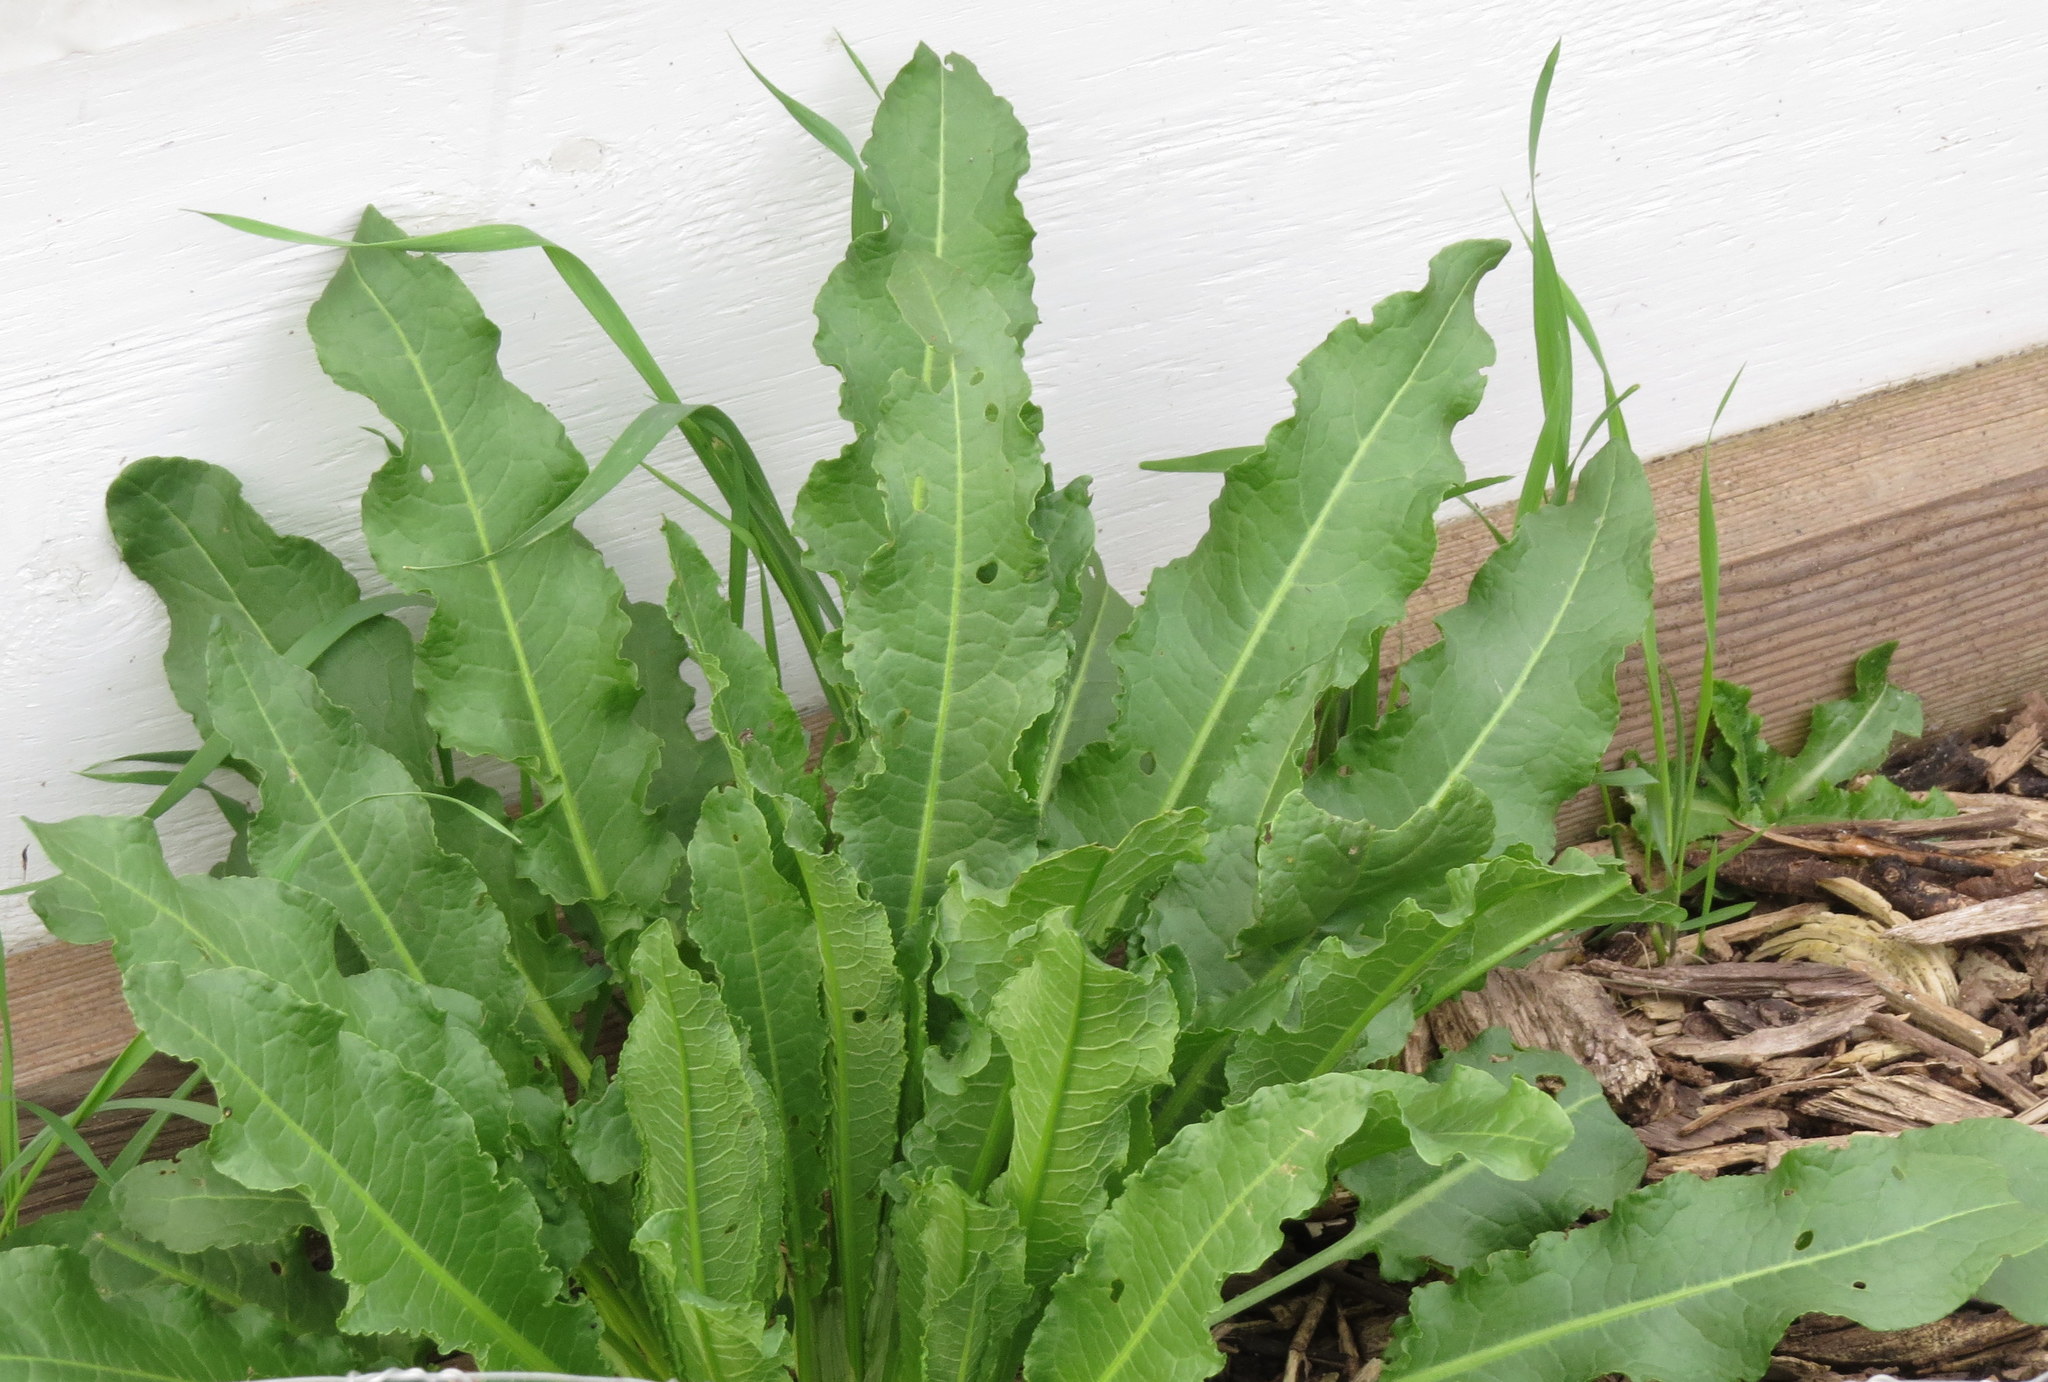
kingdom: Plantae
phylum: Tracheophyta
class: Magnoliopsida
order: Caryophyllales
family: Polygonaceae
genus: Rumex
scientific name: Rumex crispus
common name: Curled dock
